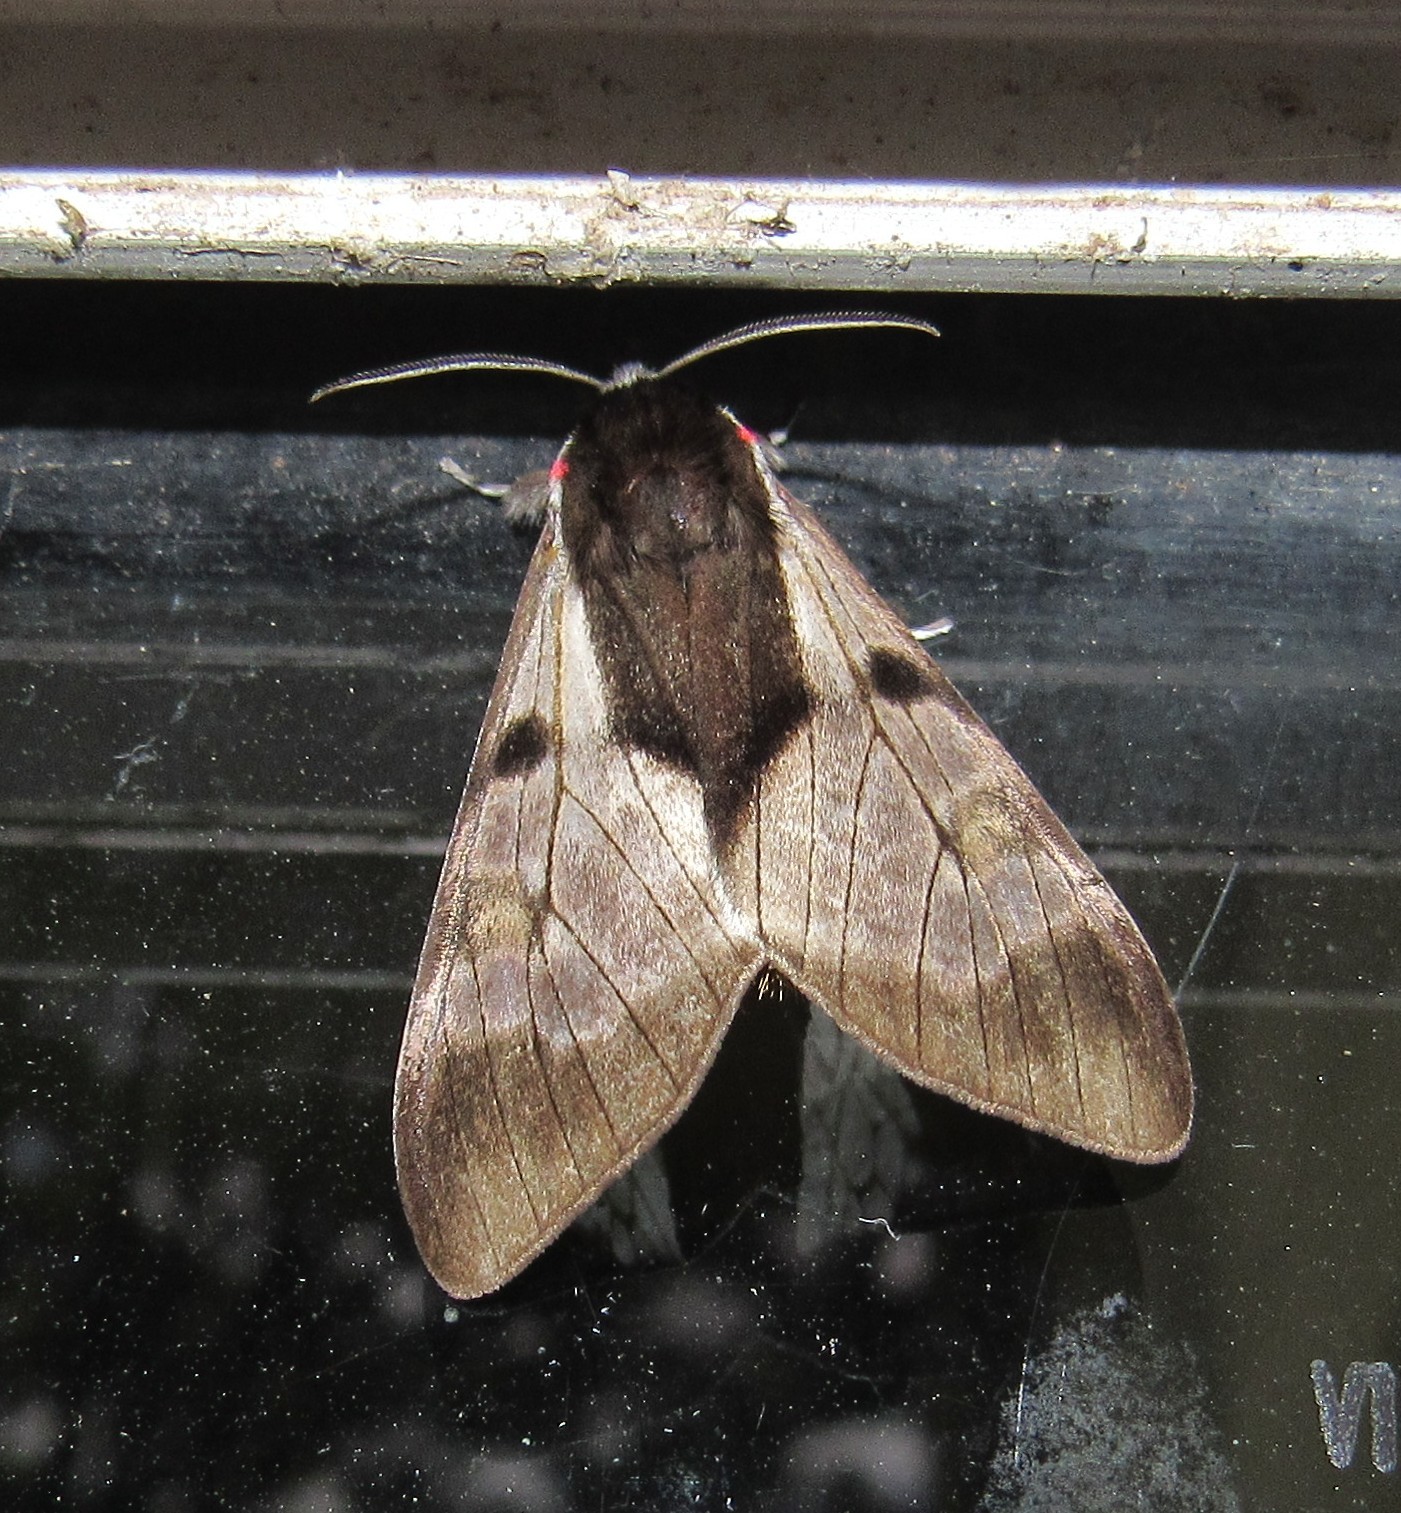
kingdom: Animalia
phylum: Arthropoda
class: Insecta
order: Lepidoptera
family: Erebidae
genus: Dysschema
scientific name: Dysschema subapicalis
